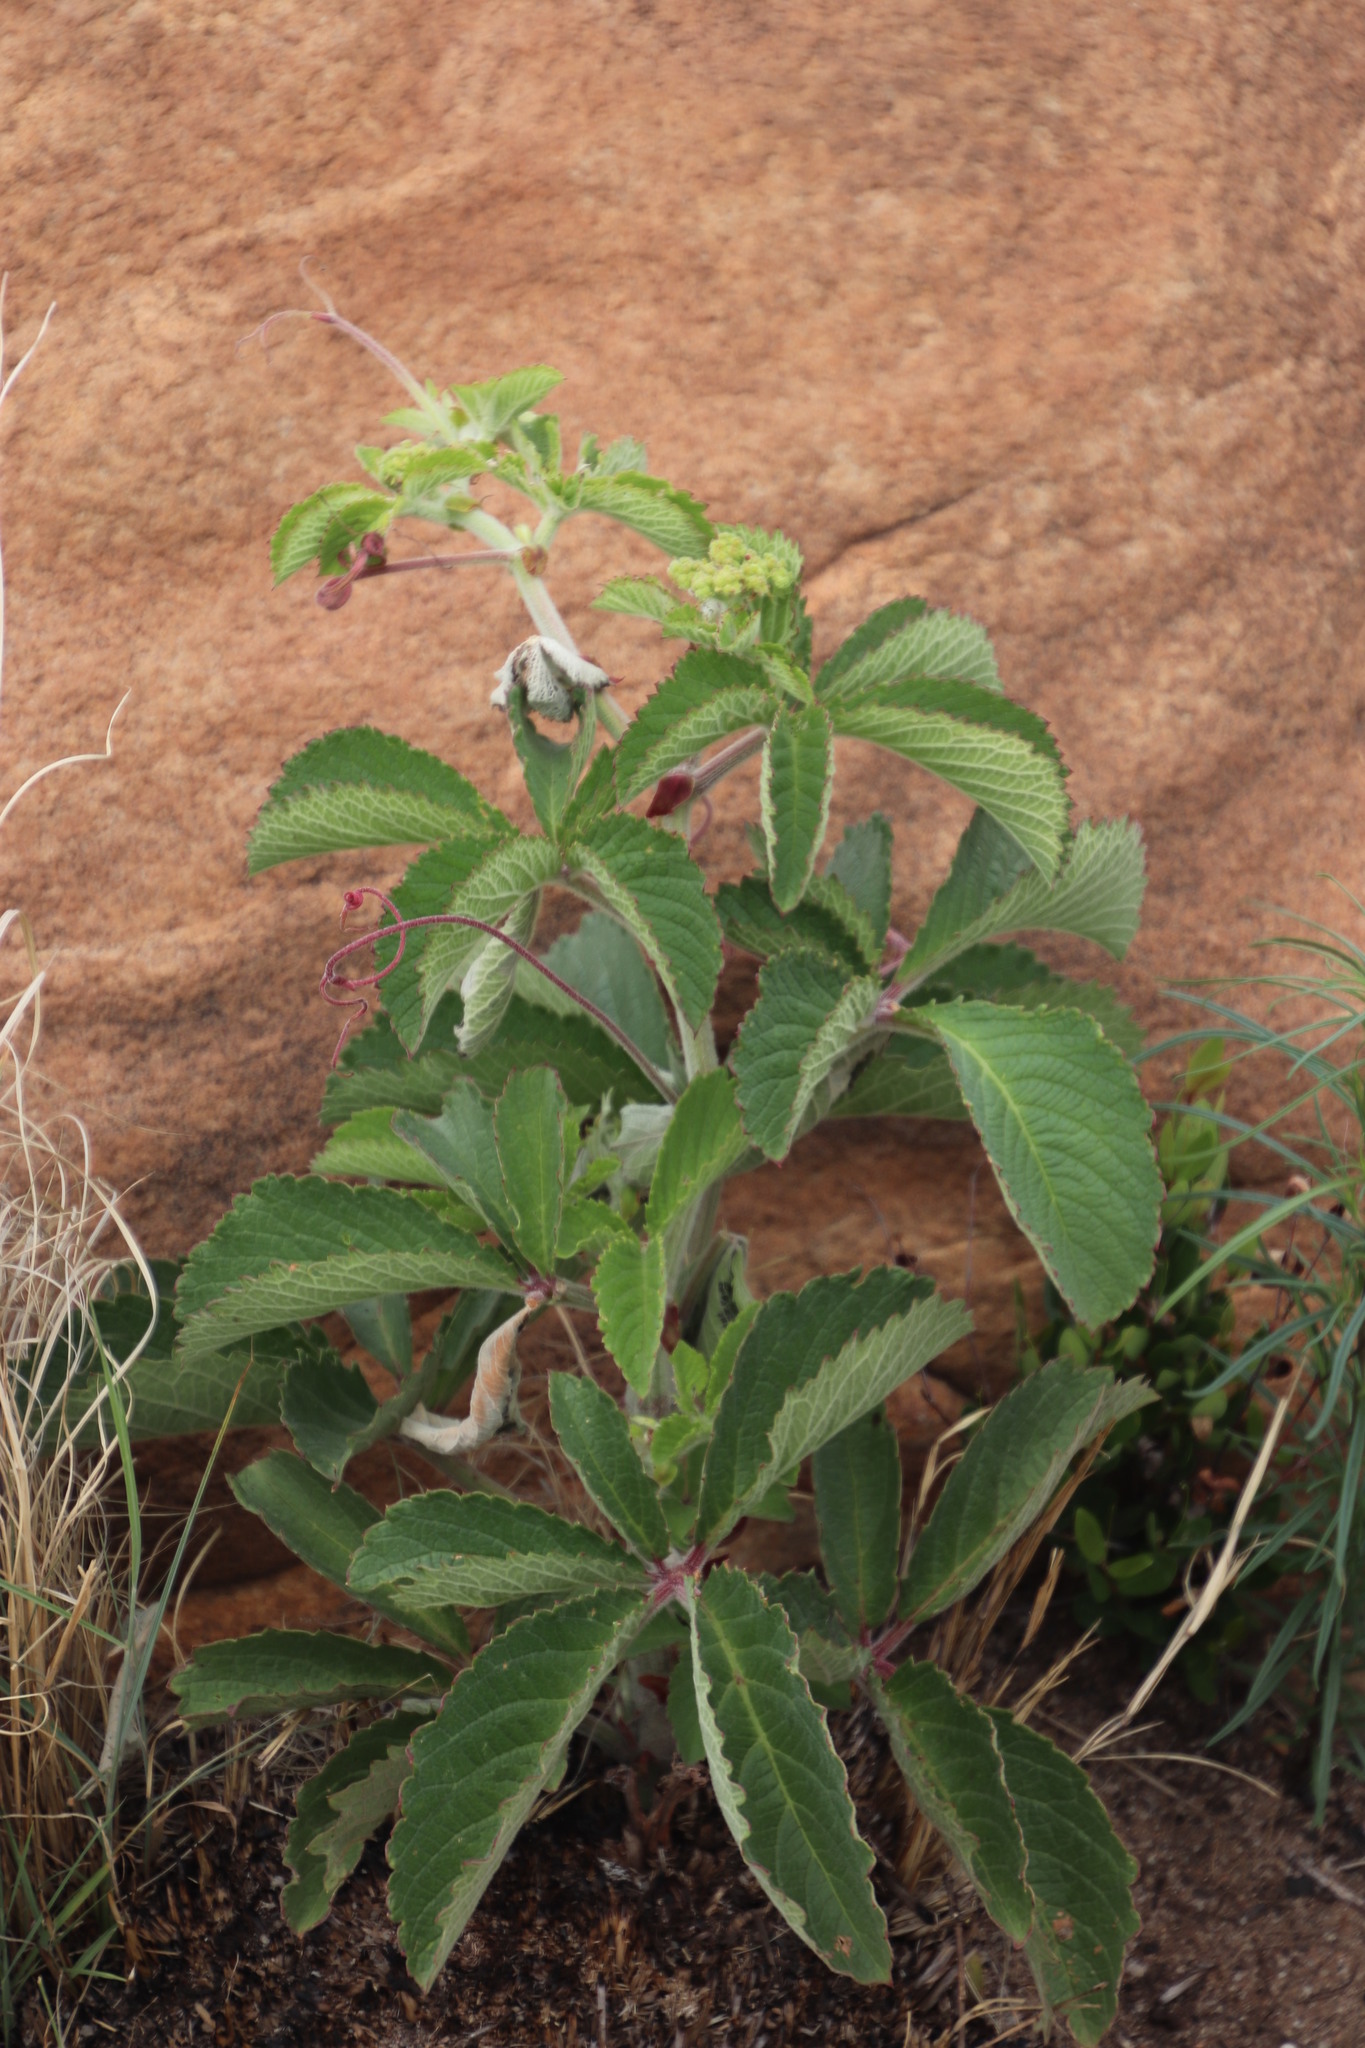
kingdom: Plantae
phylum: Tracheophyta
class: Magnoliopsida
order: Vitales
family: Vitaceae
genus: Cyphostemma
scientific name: Cyphostemma lanigerum
